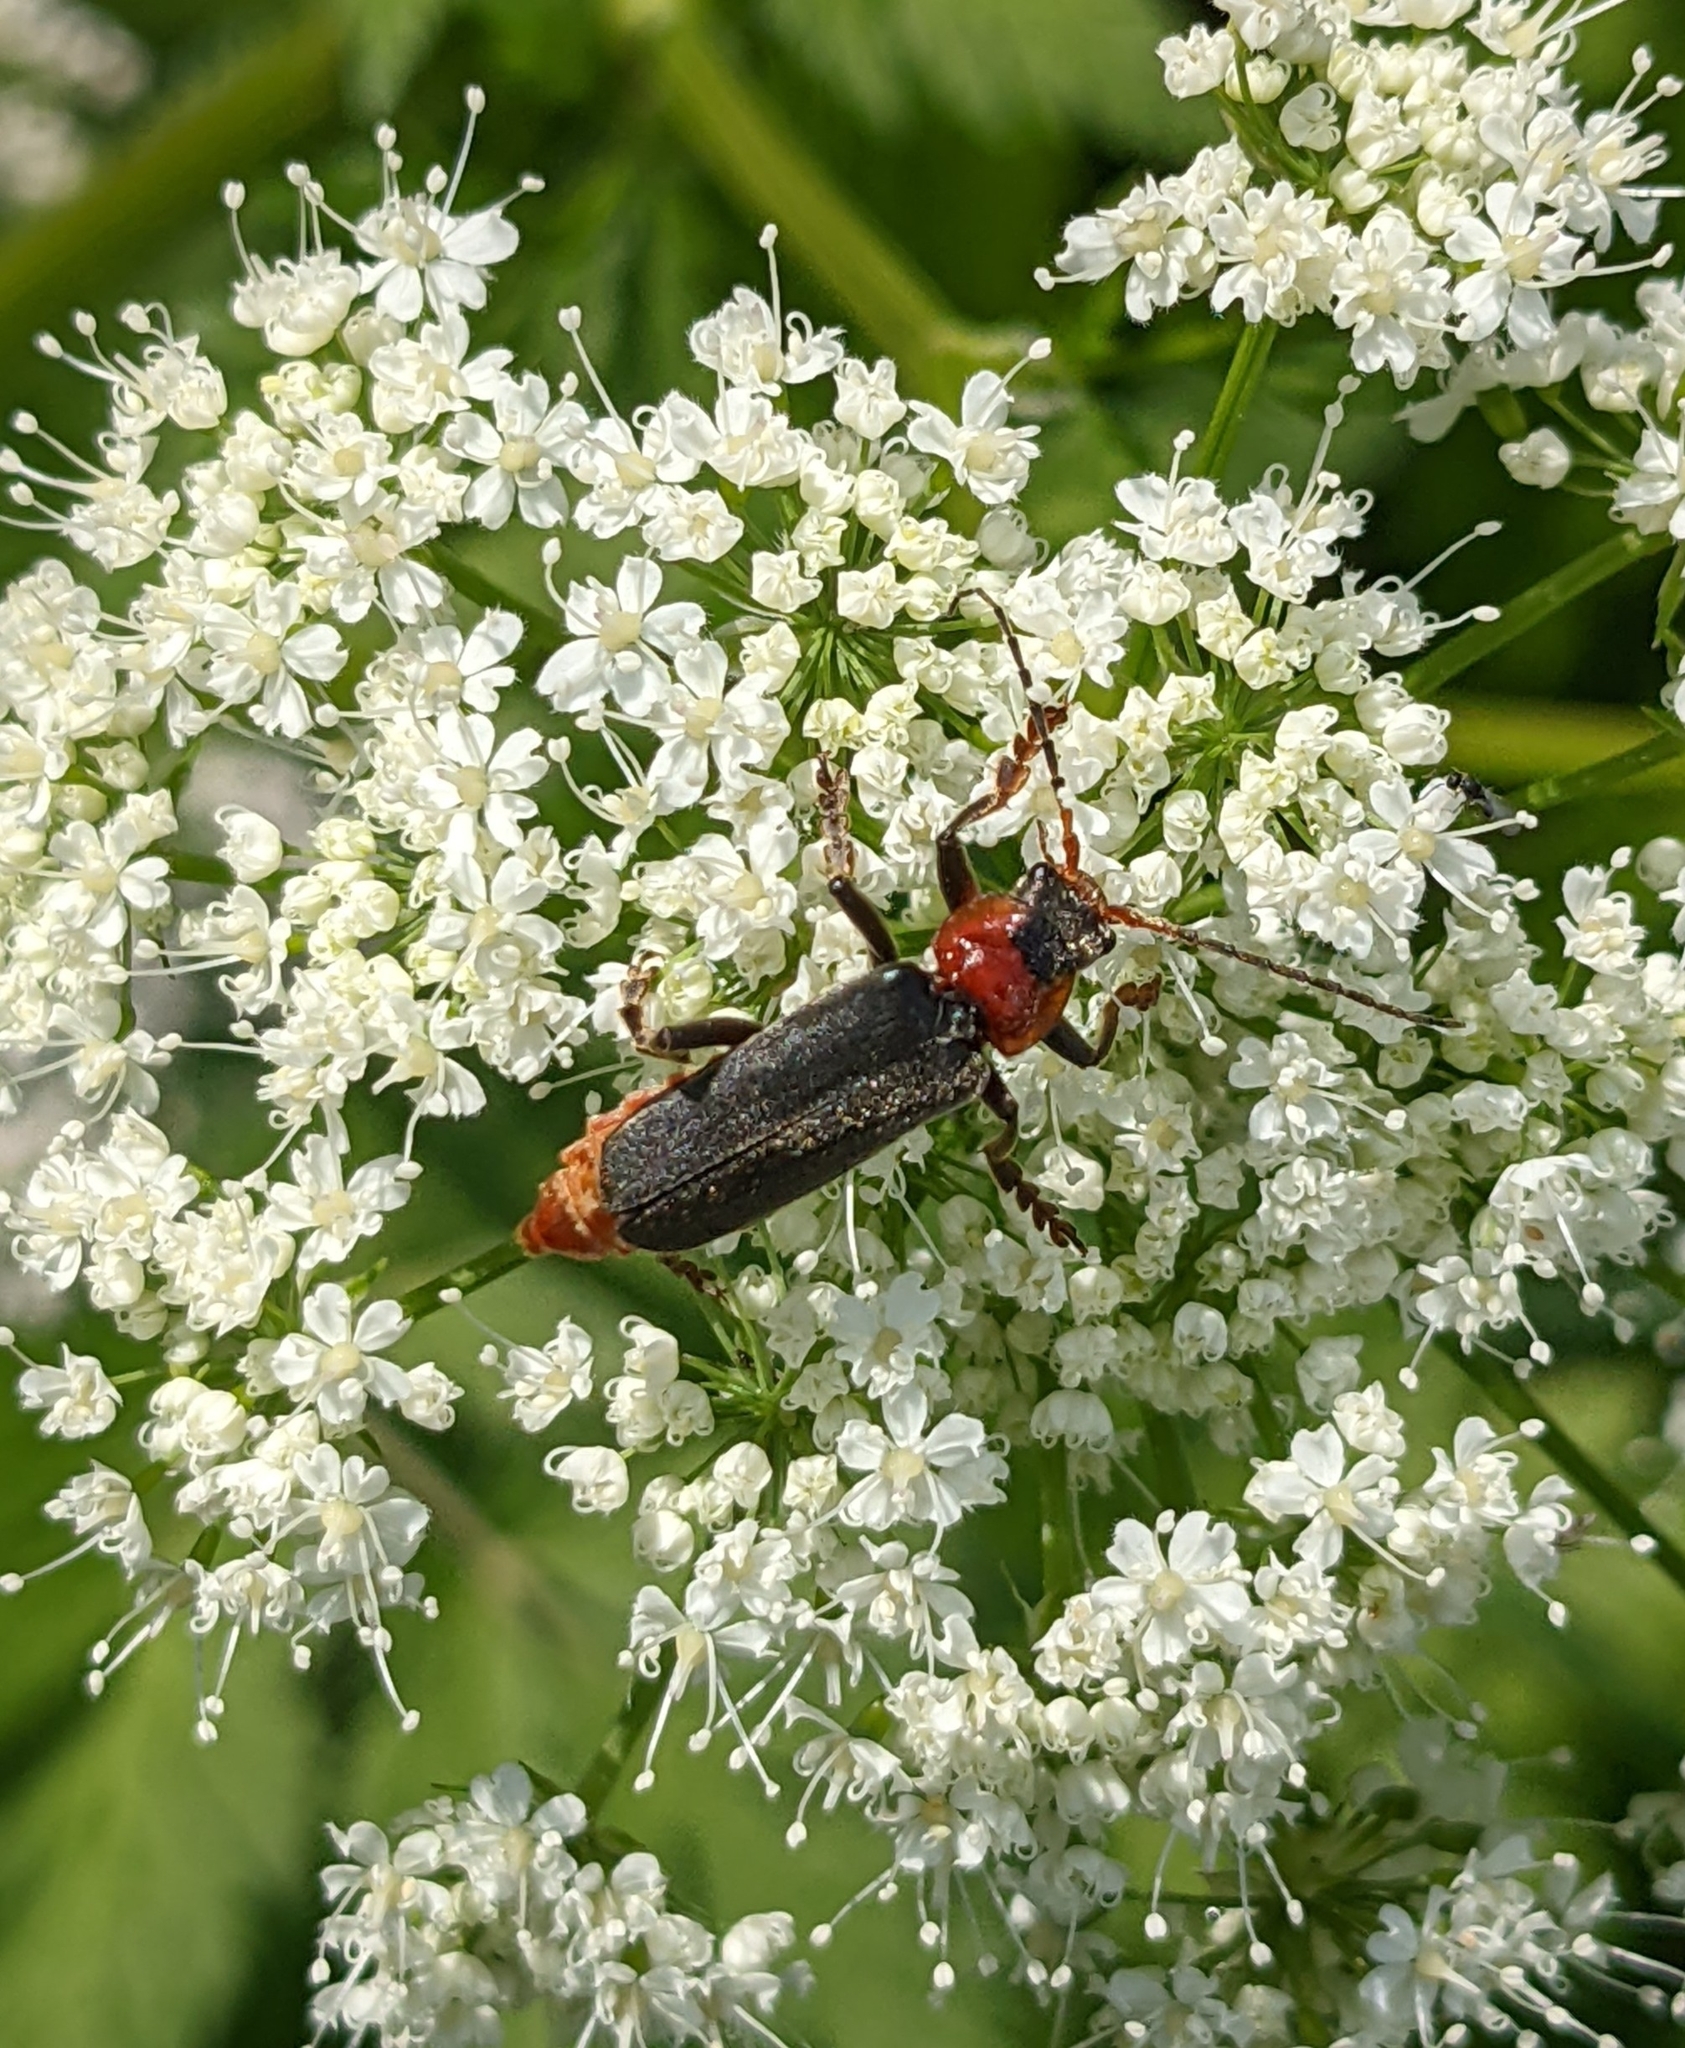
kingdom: Animalia
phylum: Arthropoda
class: Insecta
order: Coleoptera
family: Cantharidae
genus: Cantharis
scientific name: Cantharis fusca
